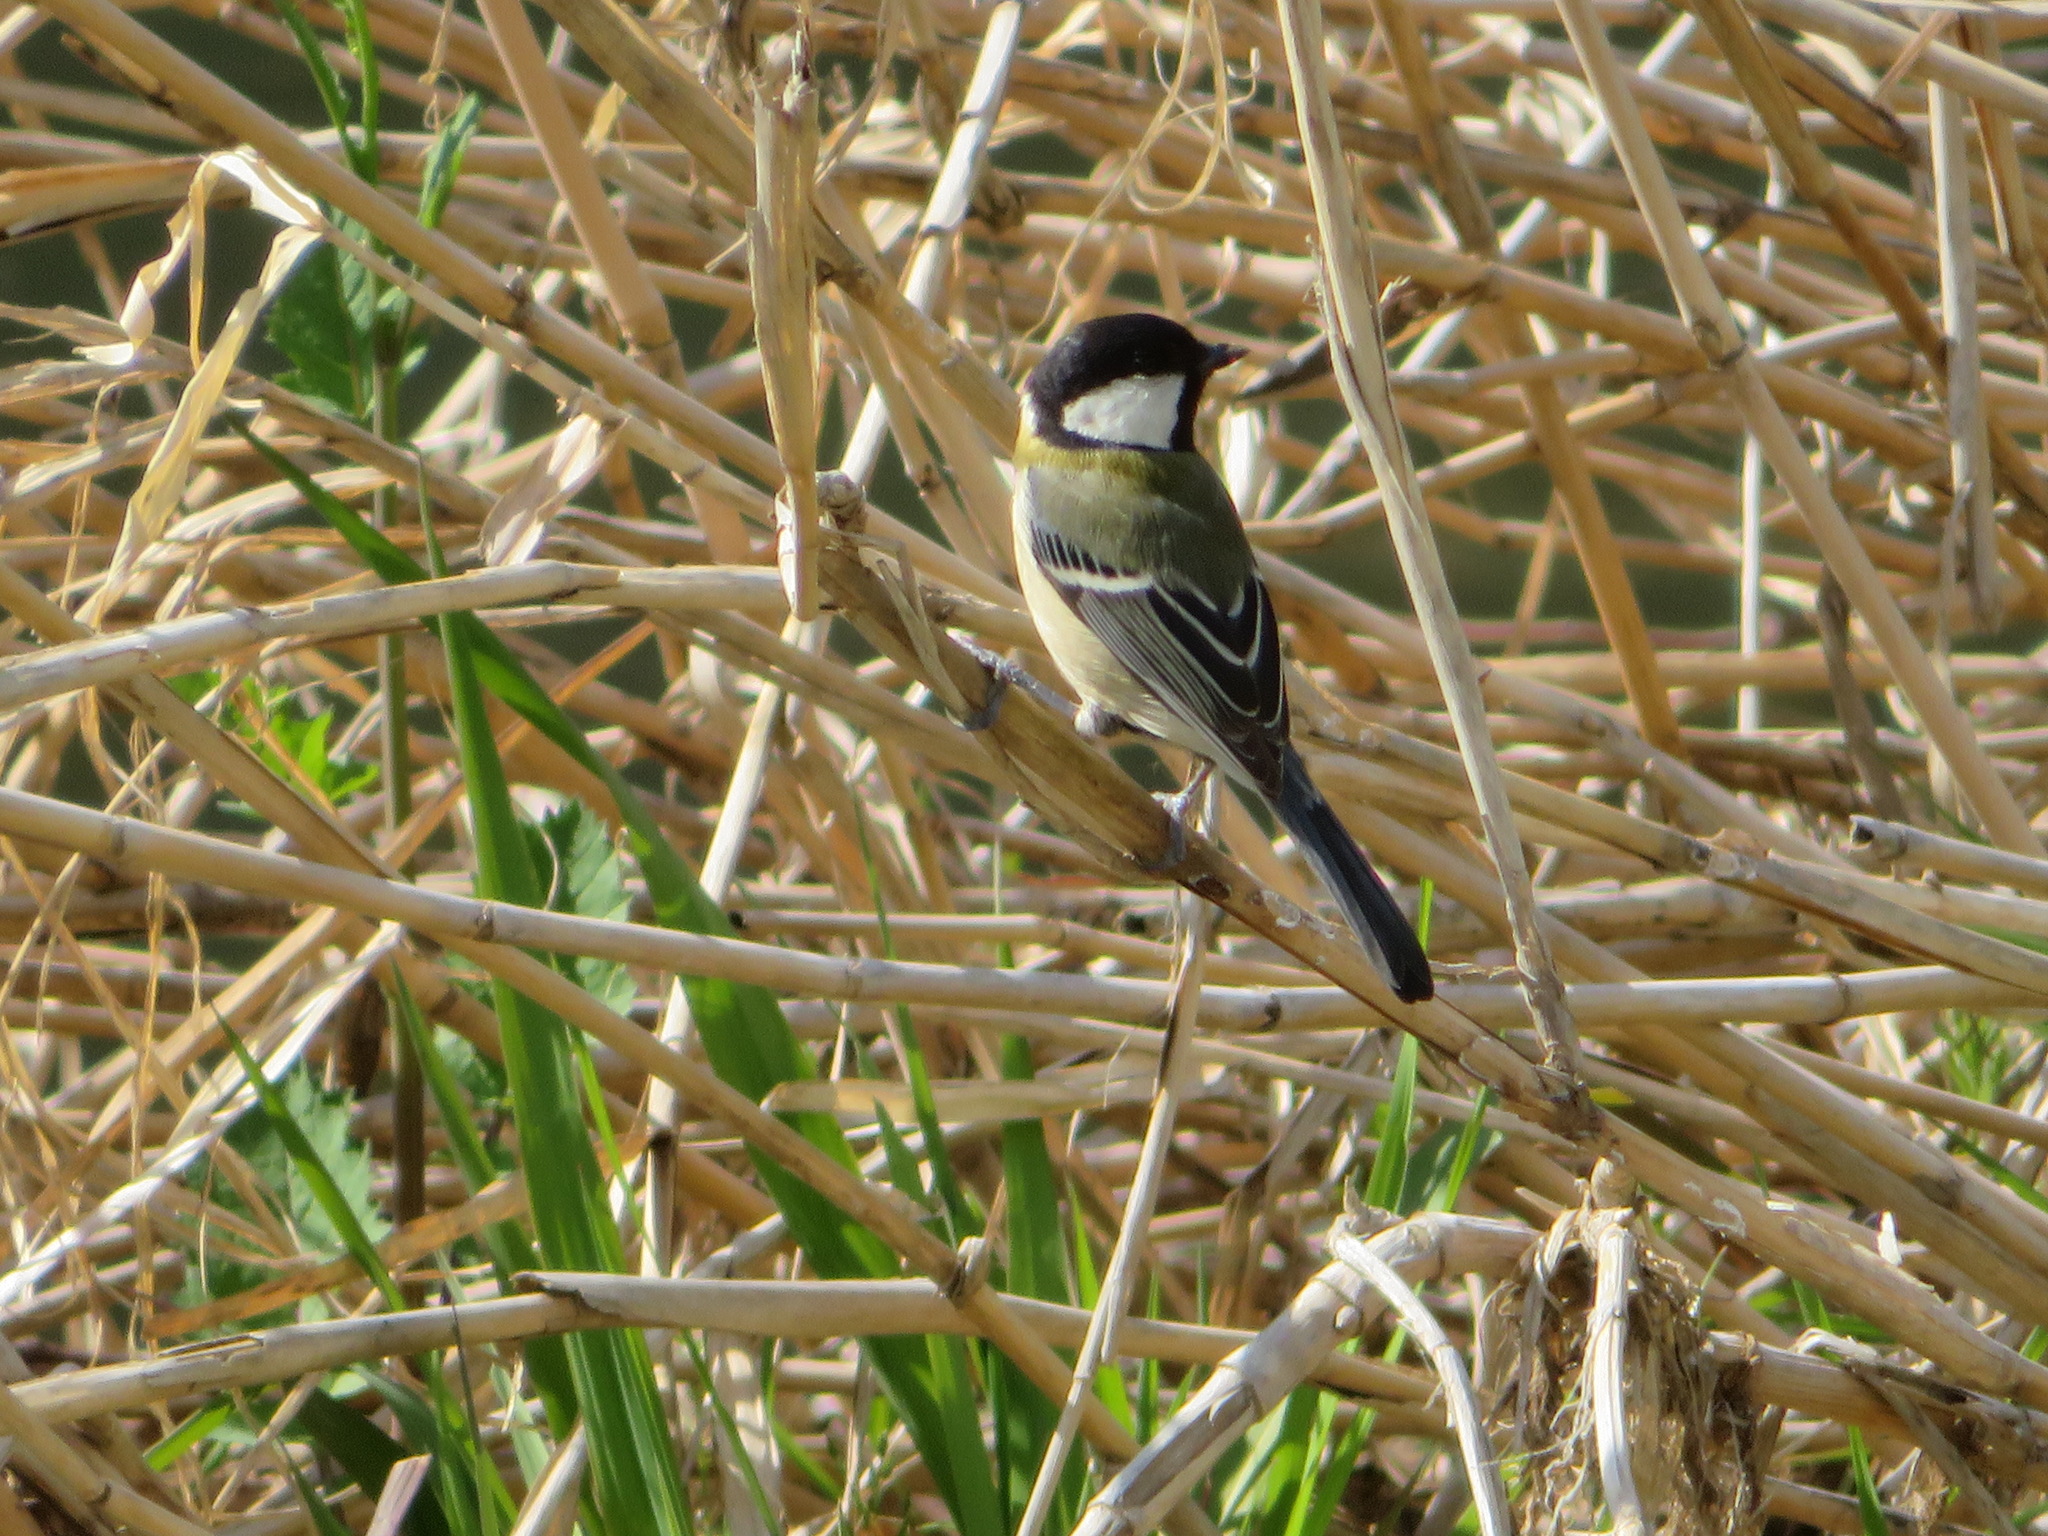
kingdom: Animalia
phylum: Chordata
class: Aves
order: Passeriformes
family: Paridae
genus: Parus
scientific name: Parus minor
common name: Japanese tit
